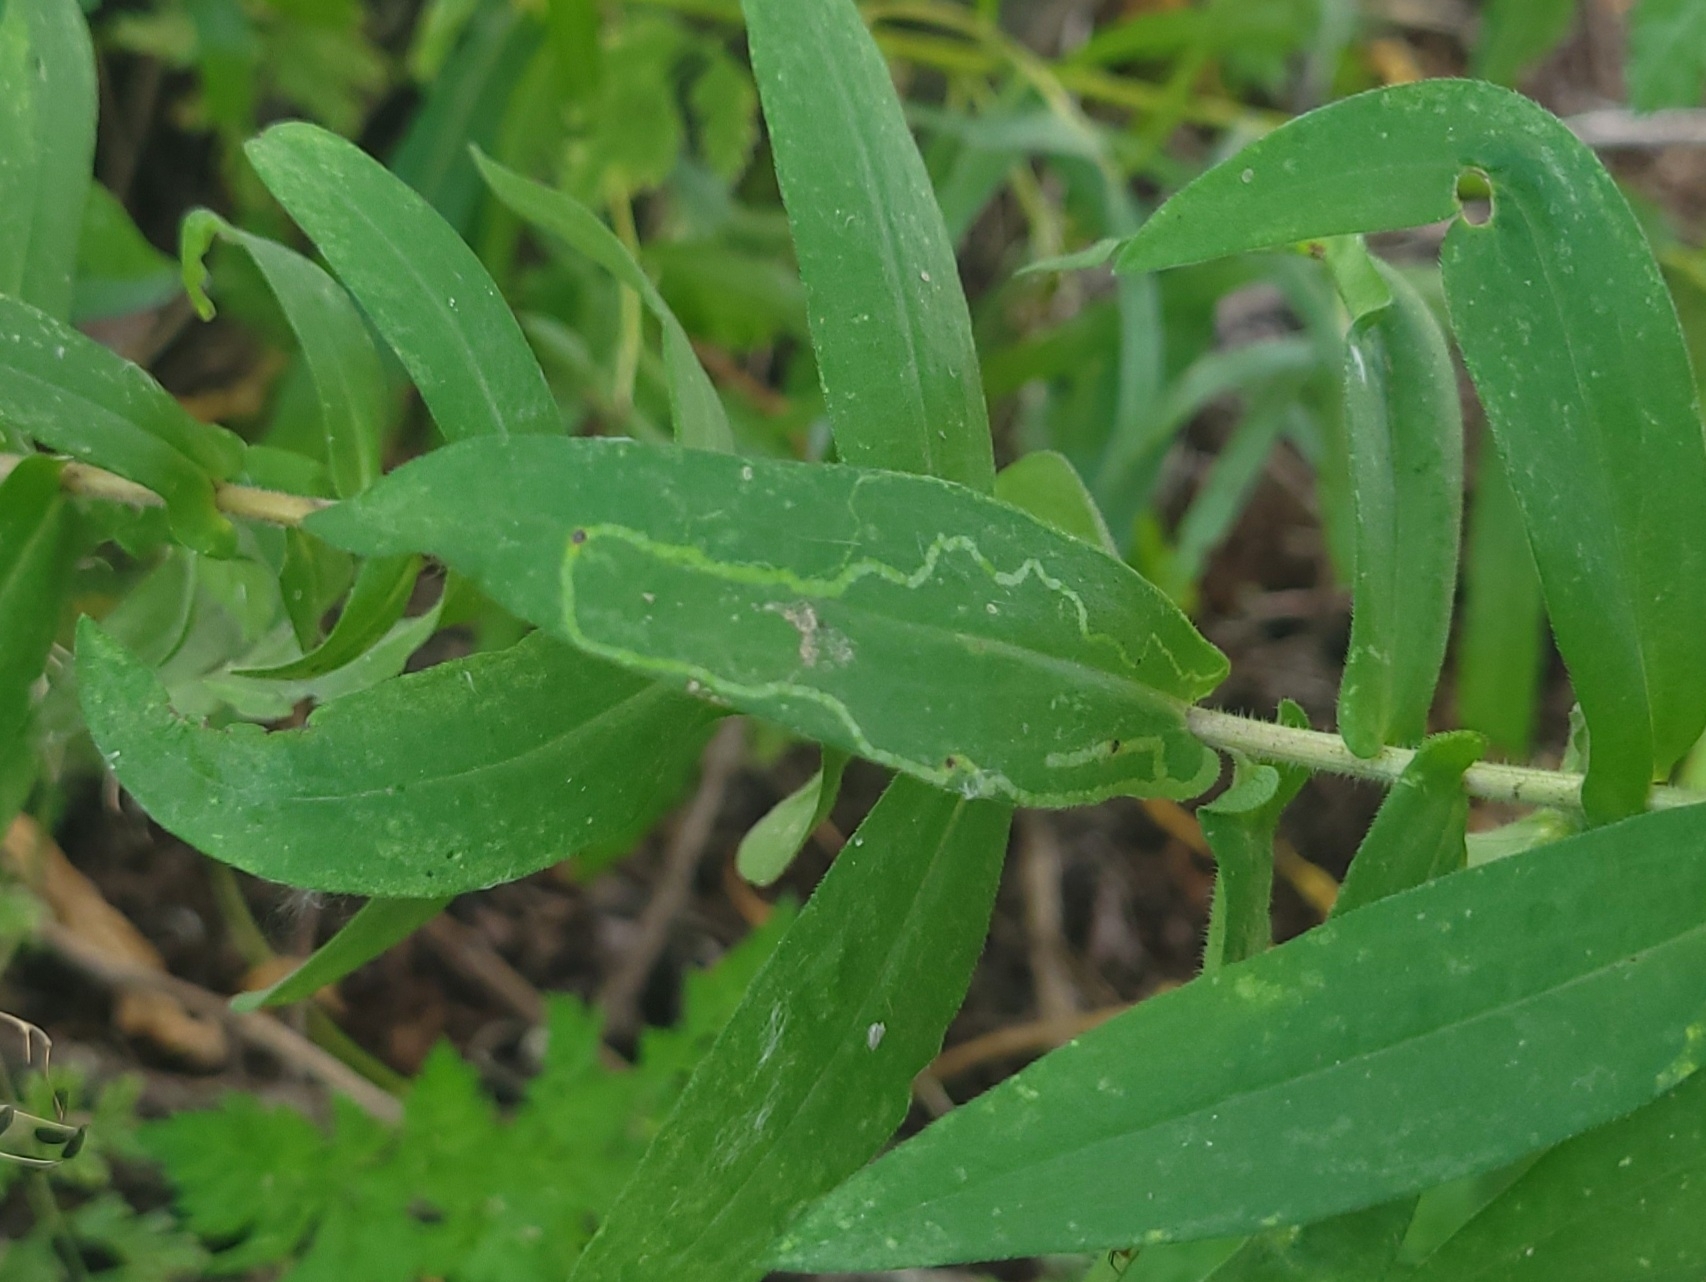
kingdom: Plantae
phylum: Tracheophyta
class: Magnoliopsida
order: Asterales
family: Asteraceae
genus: Symphyotrichum
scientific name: Symphyotrichum novae-angliae
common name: Michaelmas daisy
